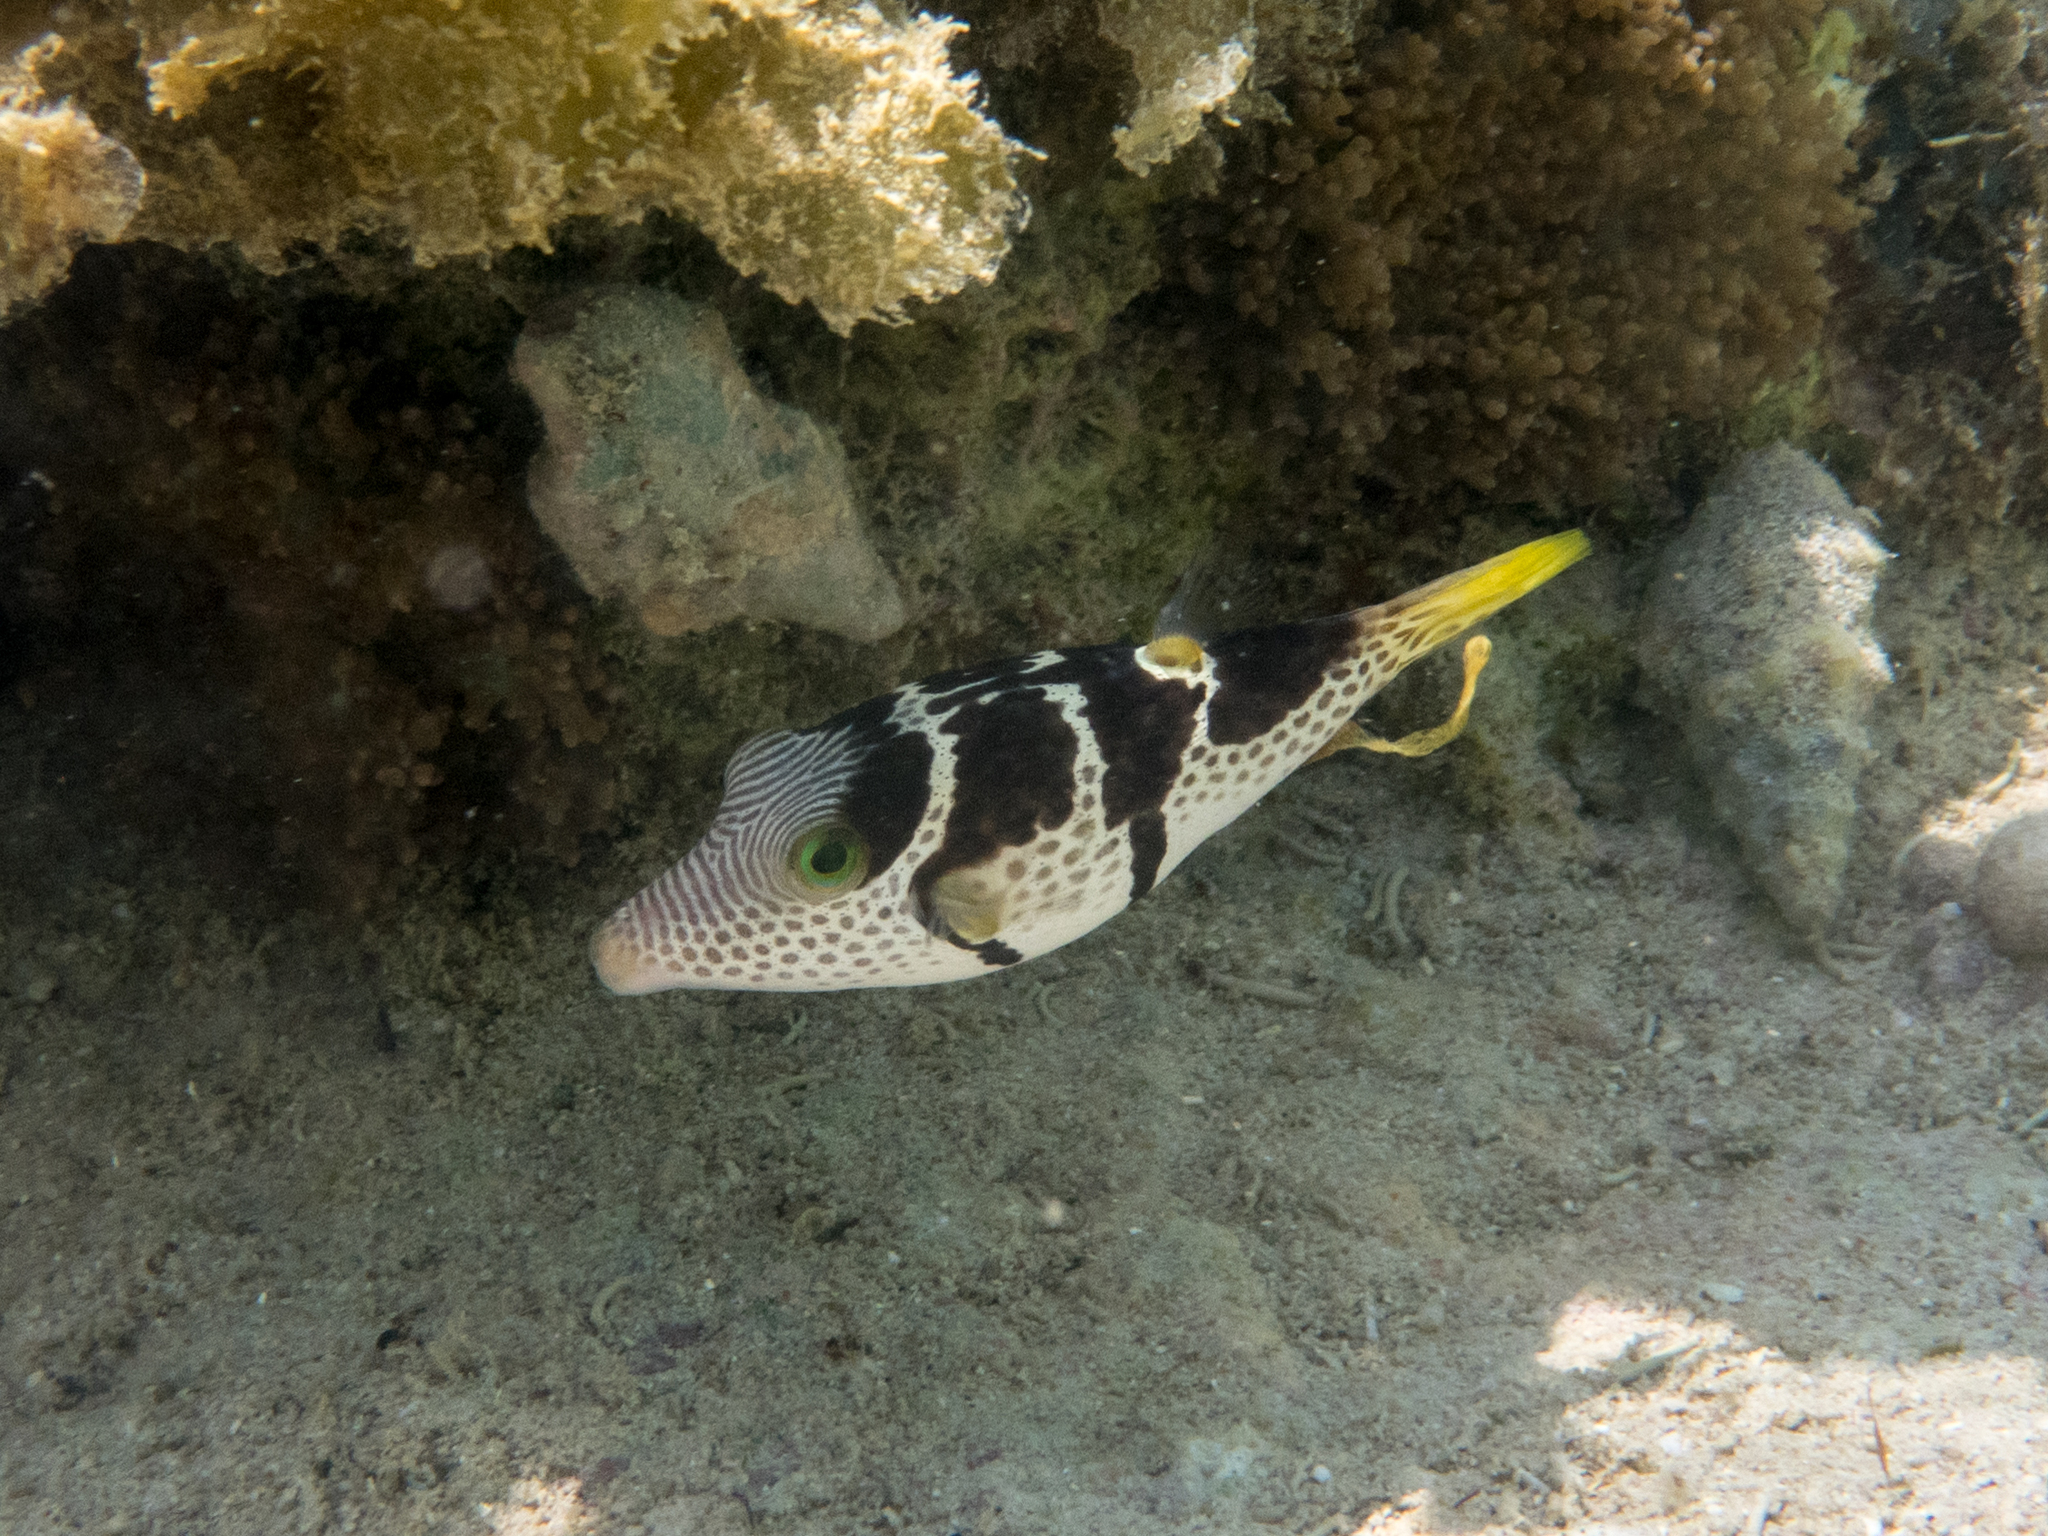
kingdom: Animalia
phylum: Chordata
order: Tetraodontiformes
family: Tetraodontidae
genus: Canthigaster
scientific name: Canthigaster valentini
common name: Banded toby
